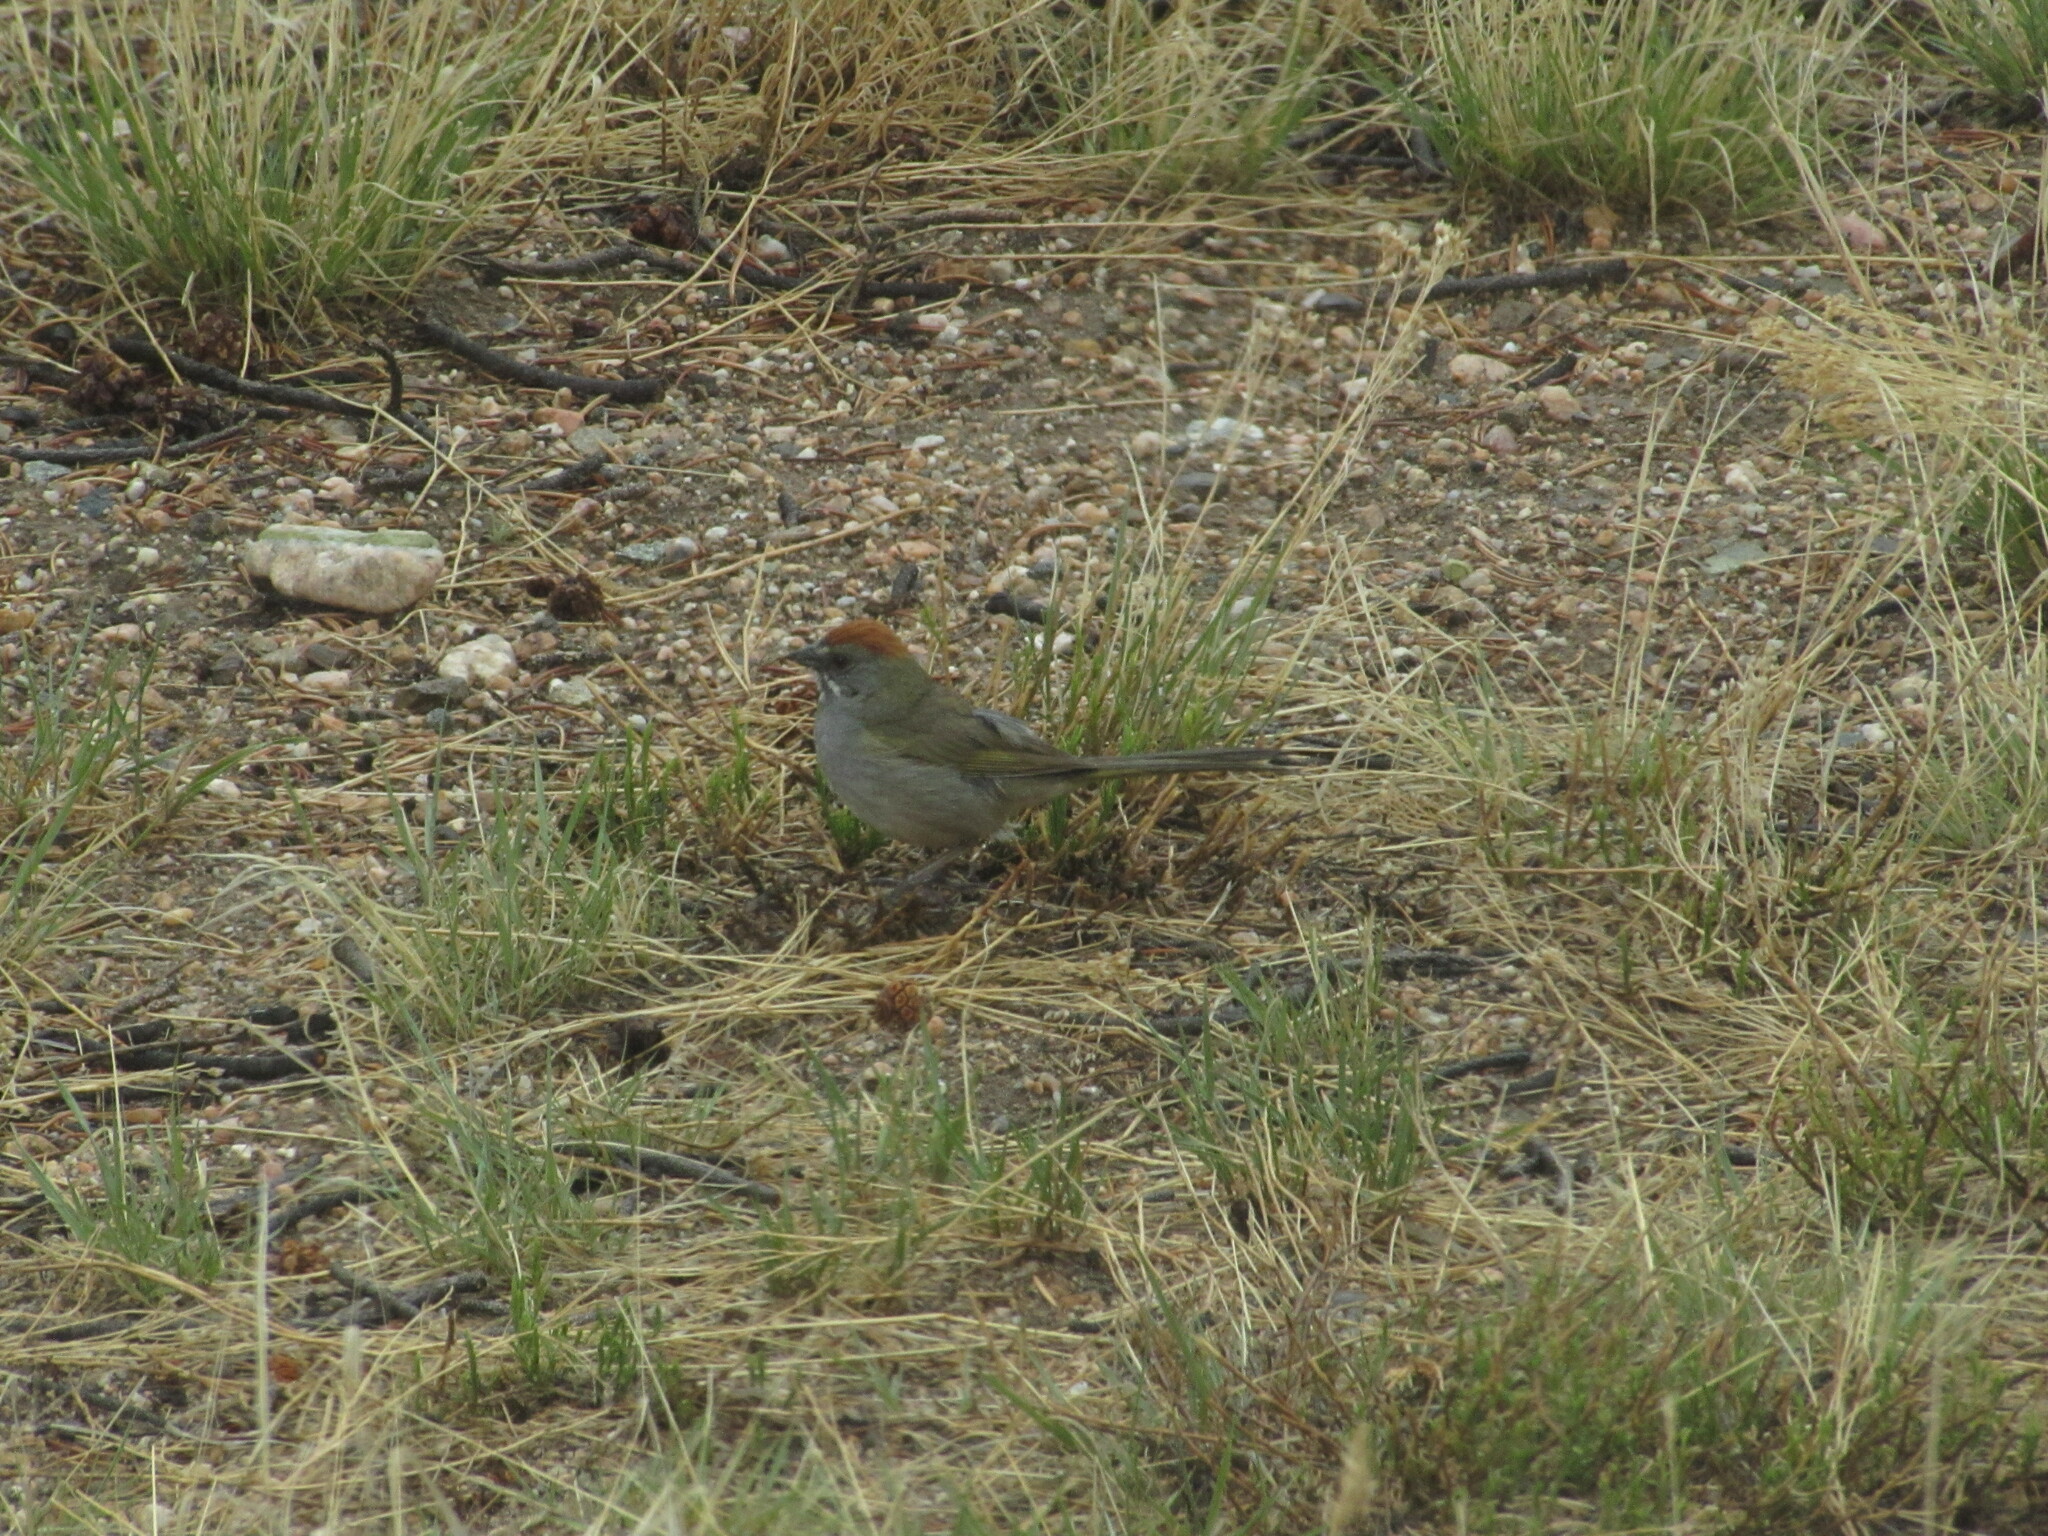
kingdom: Animalia
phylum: Chordata
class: Aves
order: Passeriformes
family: Passerellidae
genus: Pipilo
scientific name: Pipilo chlorurus
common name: Green-tailed towhee
